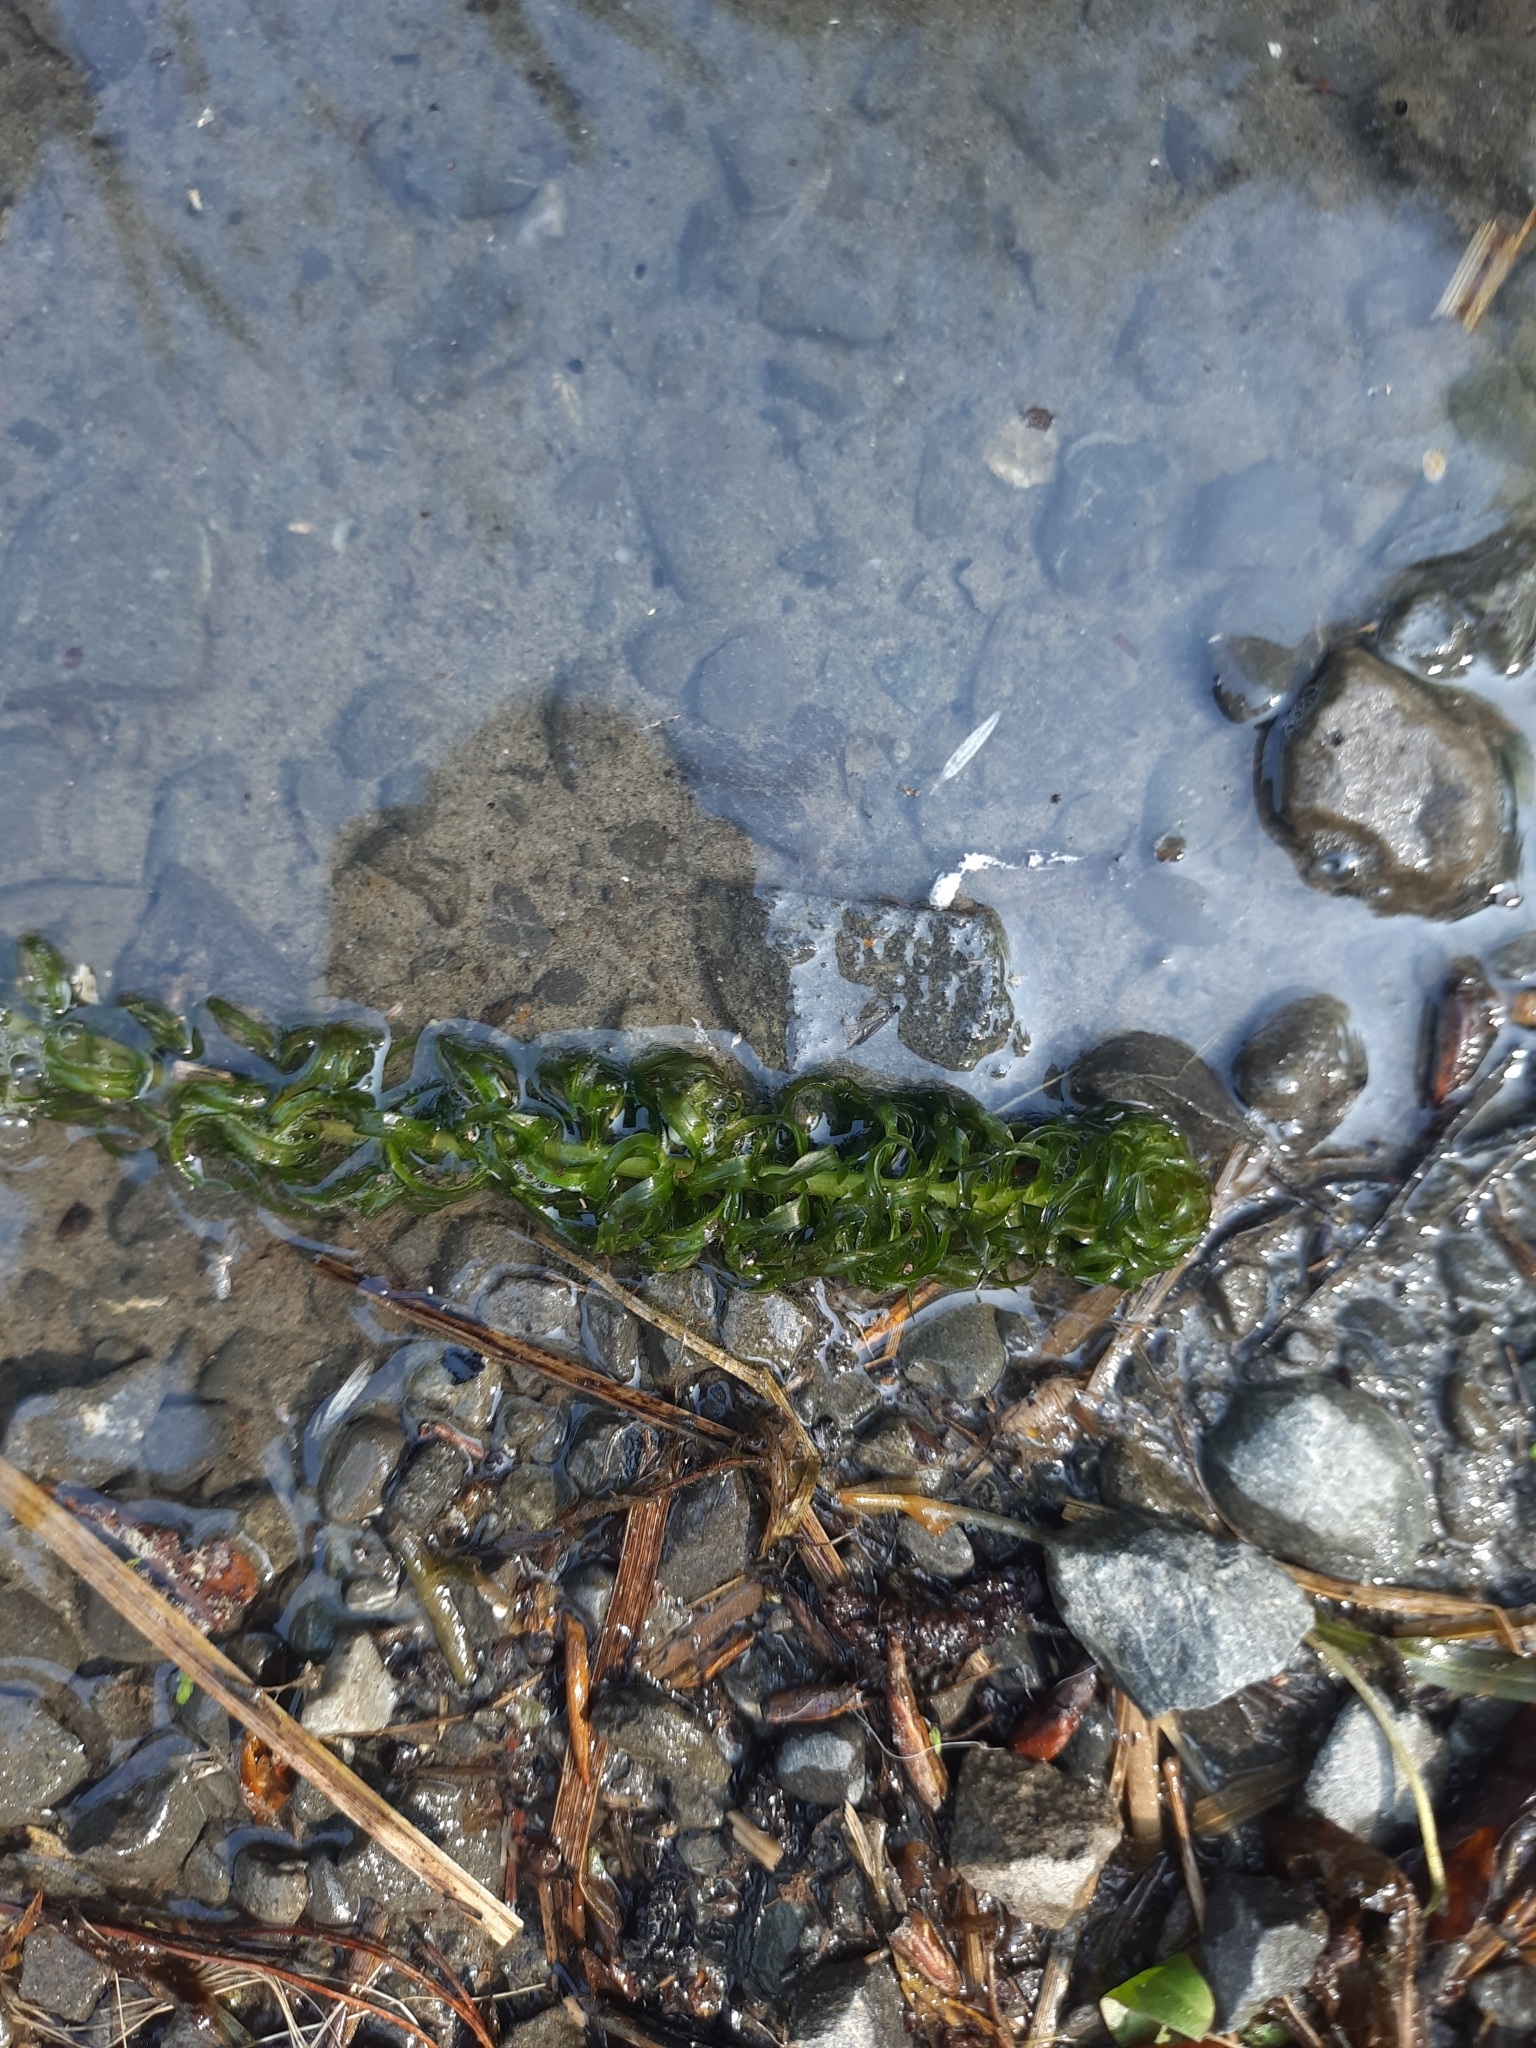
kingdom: Plantae
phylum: Tracheophyta
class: Liliopsida
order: Alismatales
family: Hydrocharitaceae
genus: Lagarosiphon
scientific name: Lagarosiphon major
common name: Curly waterweed
